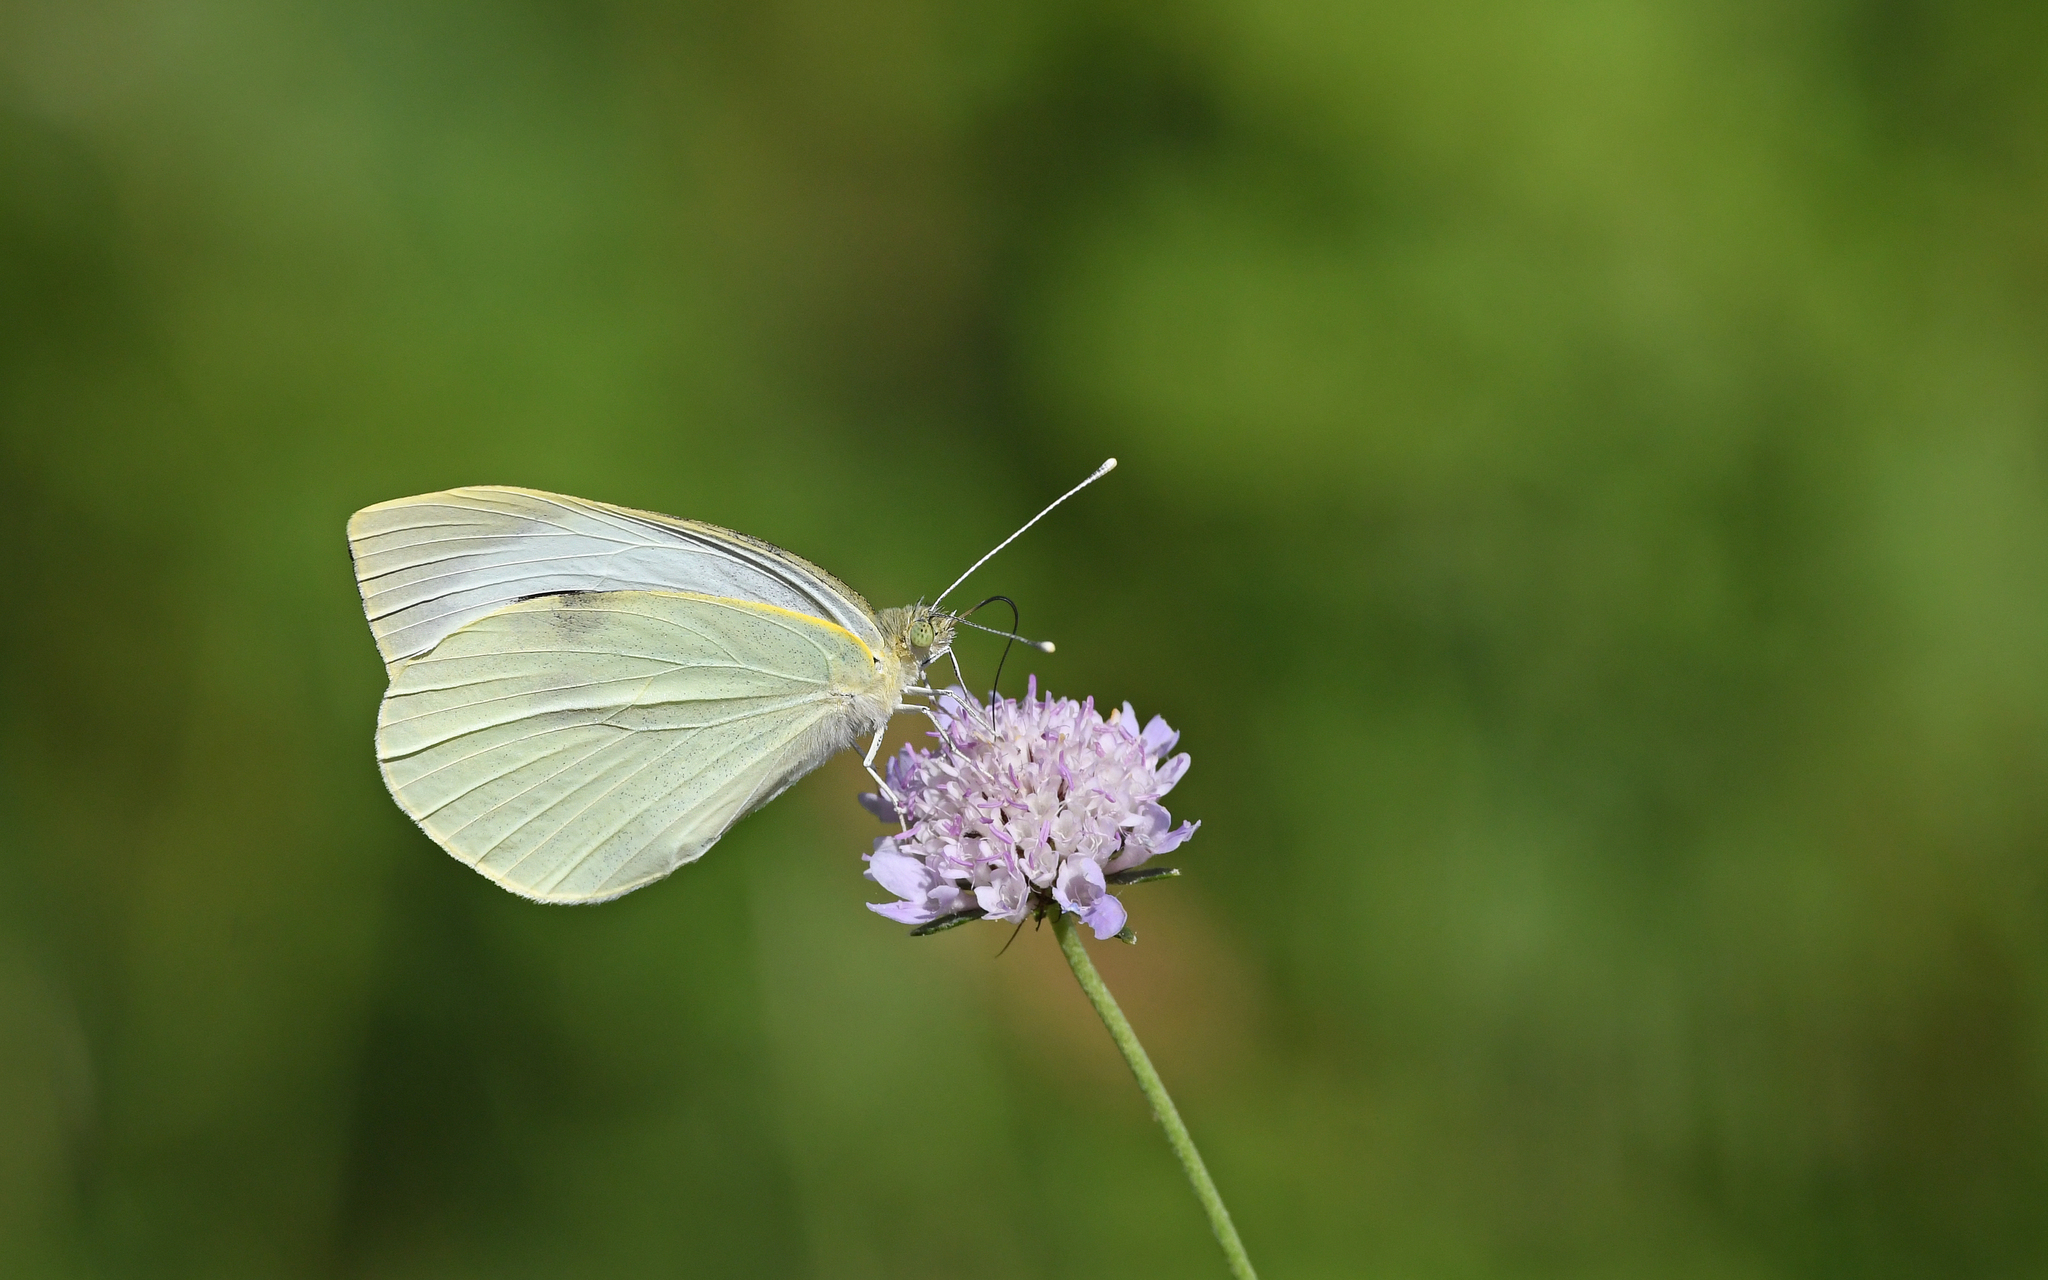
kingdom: Animalia
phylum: Arthropoda
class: Insecta
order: Lepidoptera
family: Pieridae
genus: Pieris
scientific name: Pieris brassicae
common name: Large white
